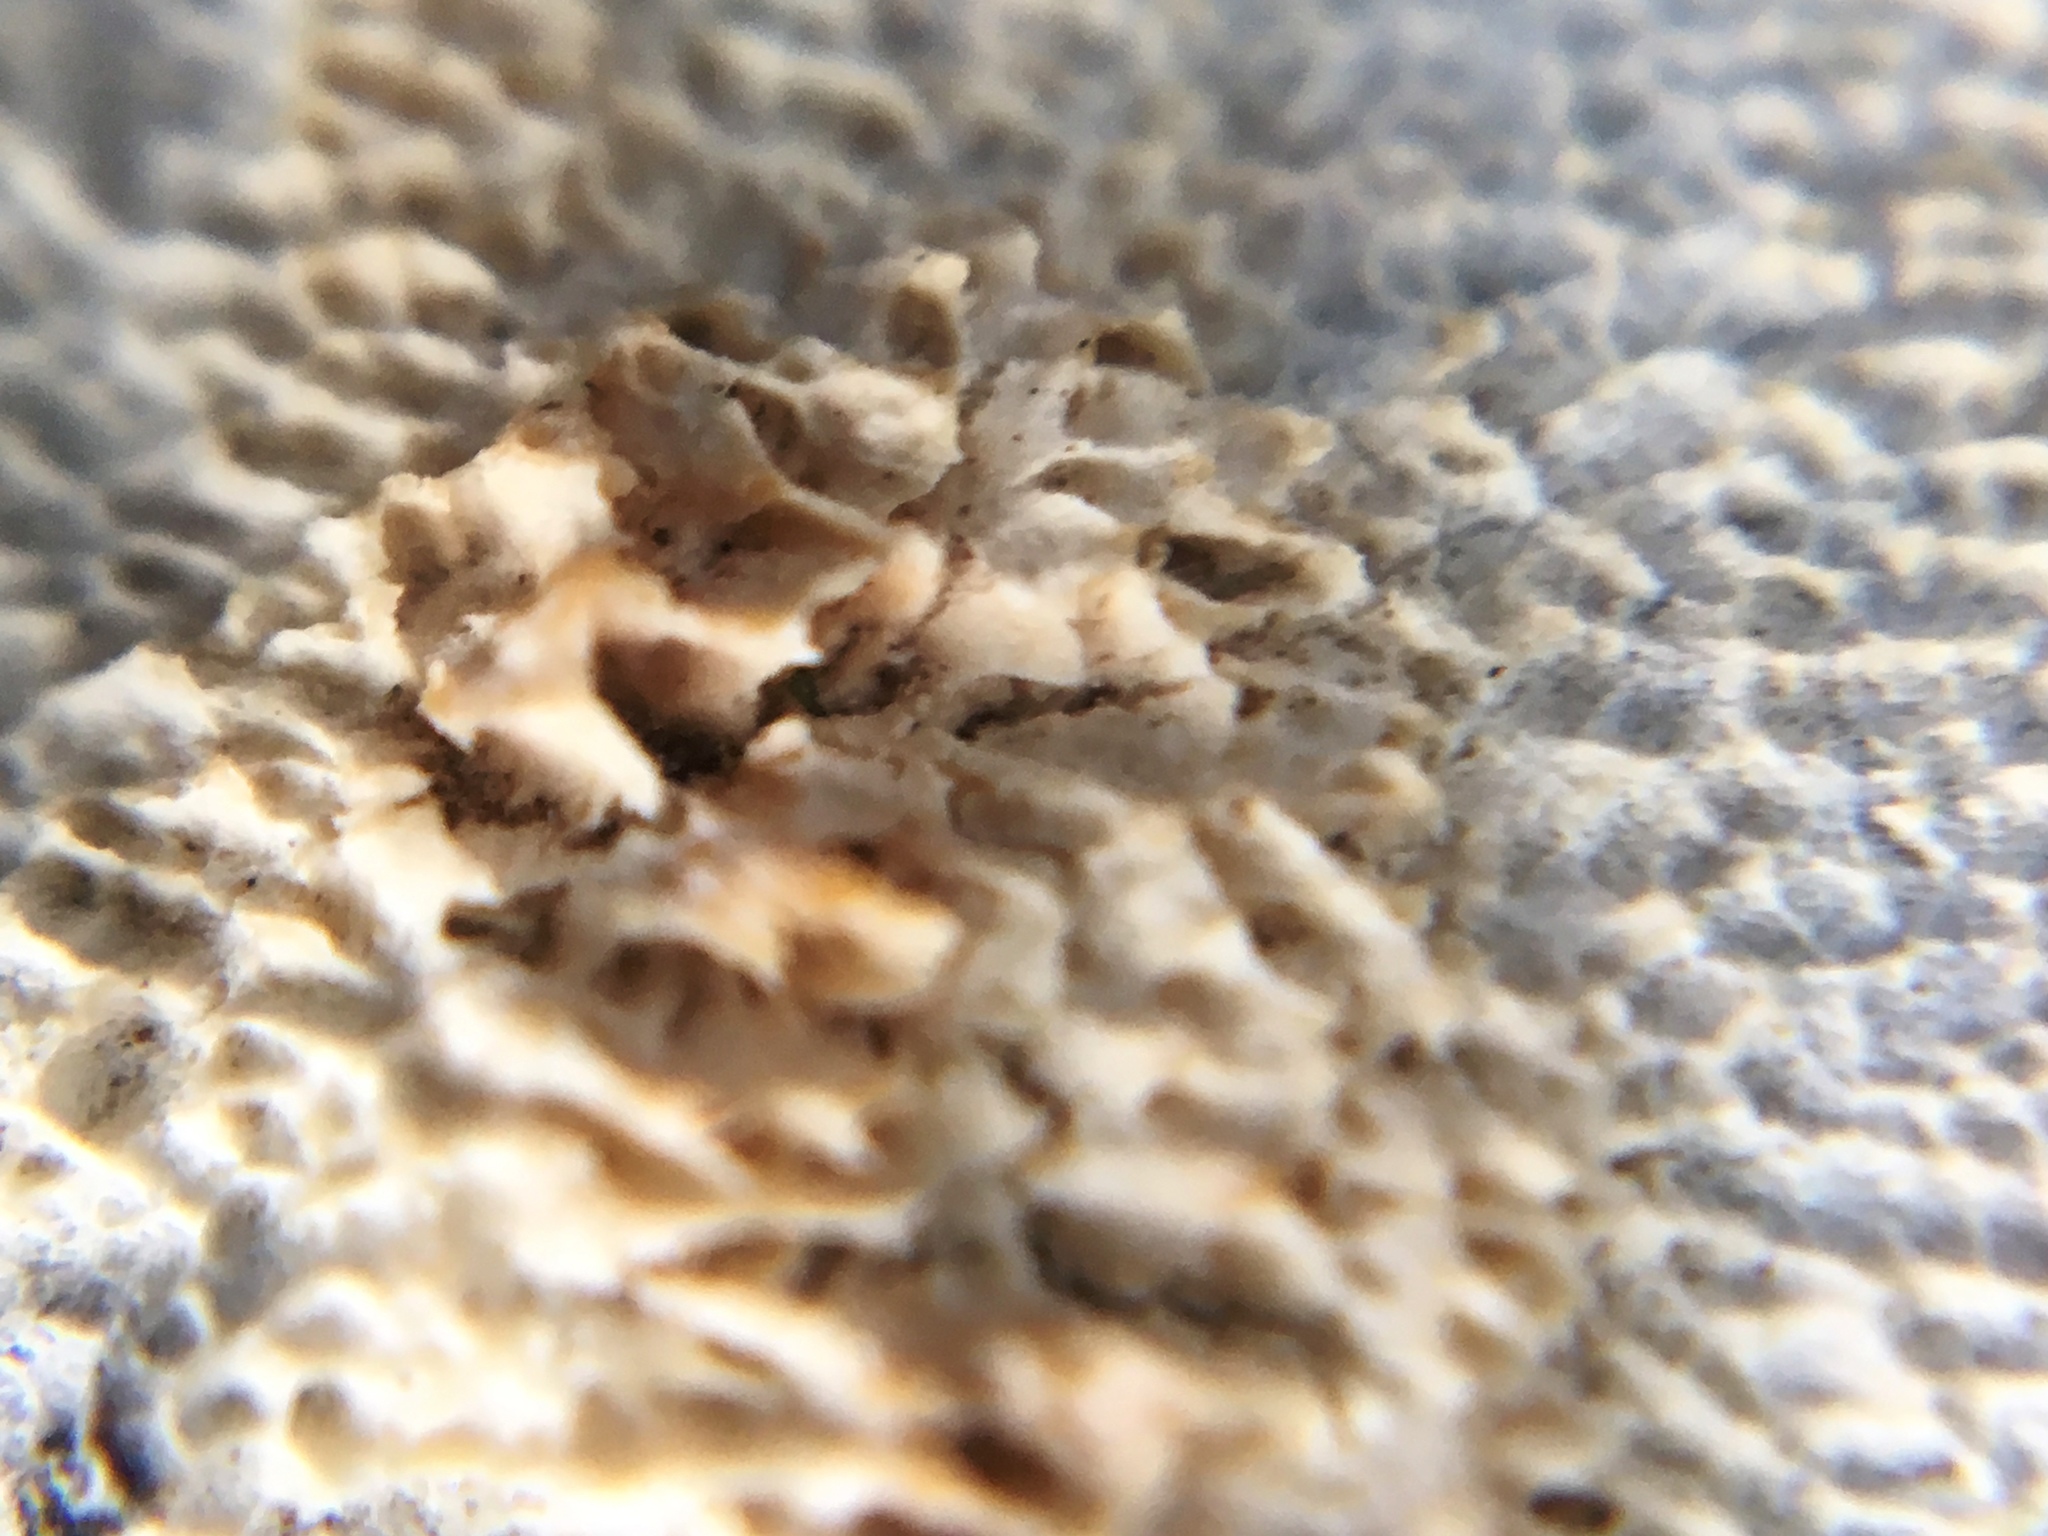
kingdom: Fungi
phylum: Basidiomycota
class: Agaricomycetes
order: Polyporales
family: Irpicaceae
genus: Irpex
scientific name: Irpex lacteus
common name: Milk-white toothed polypore
